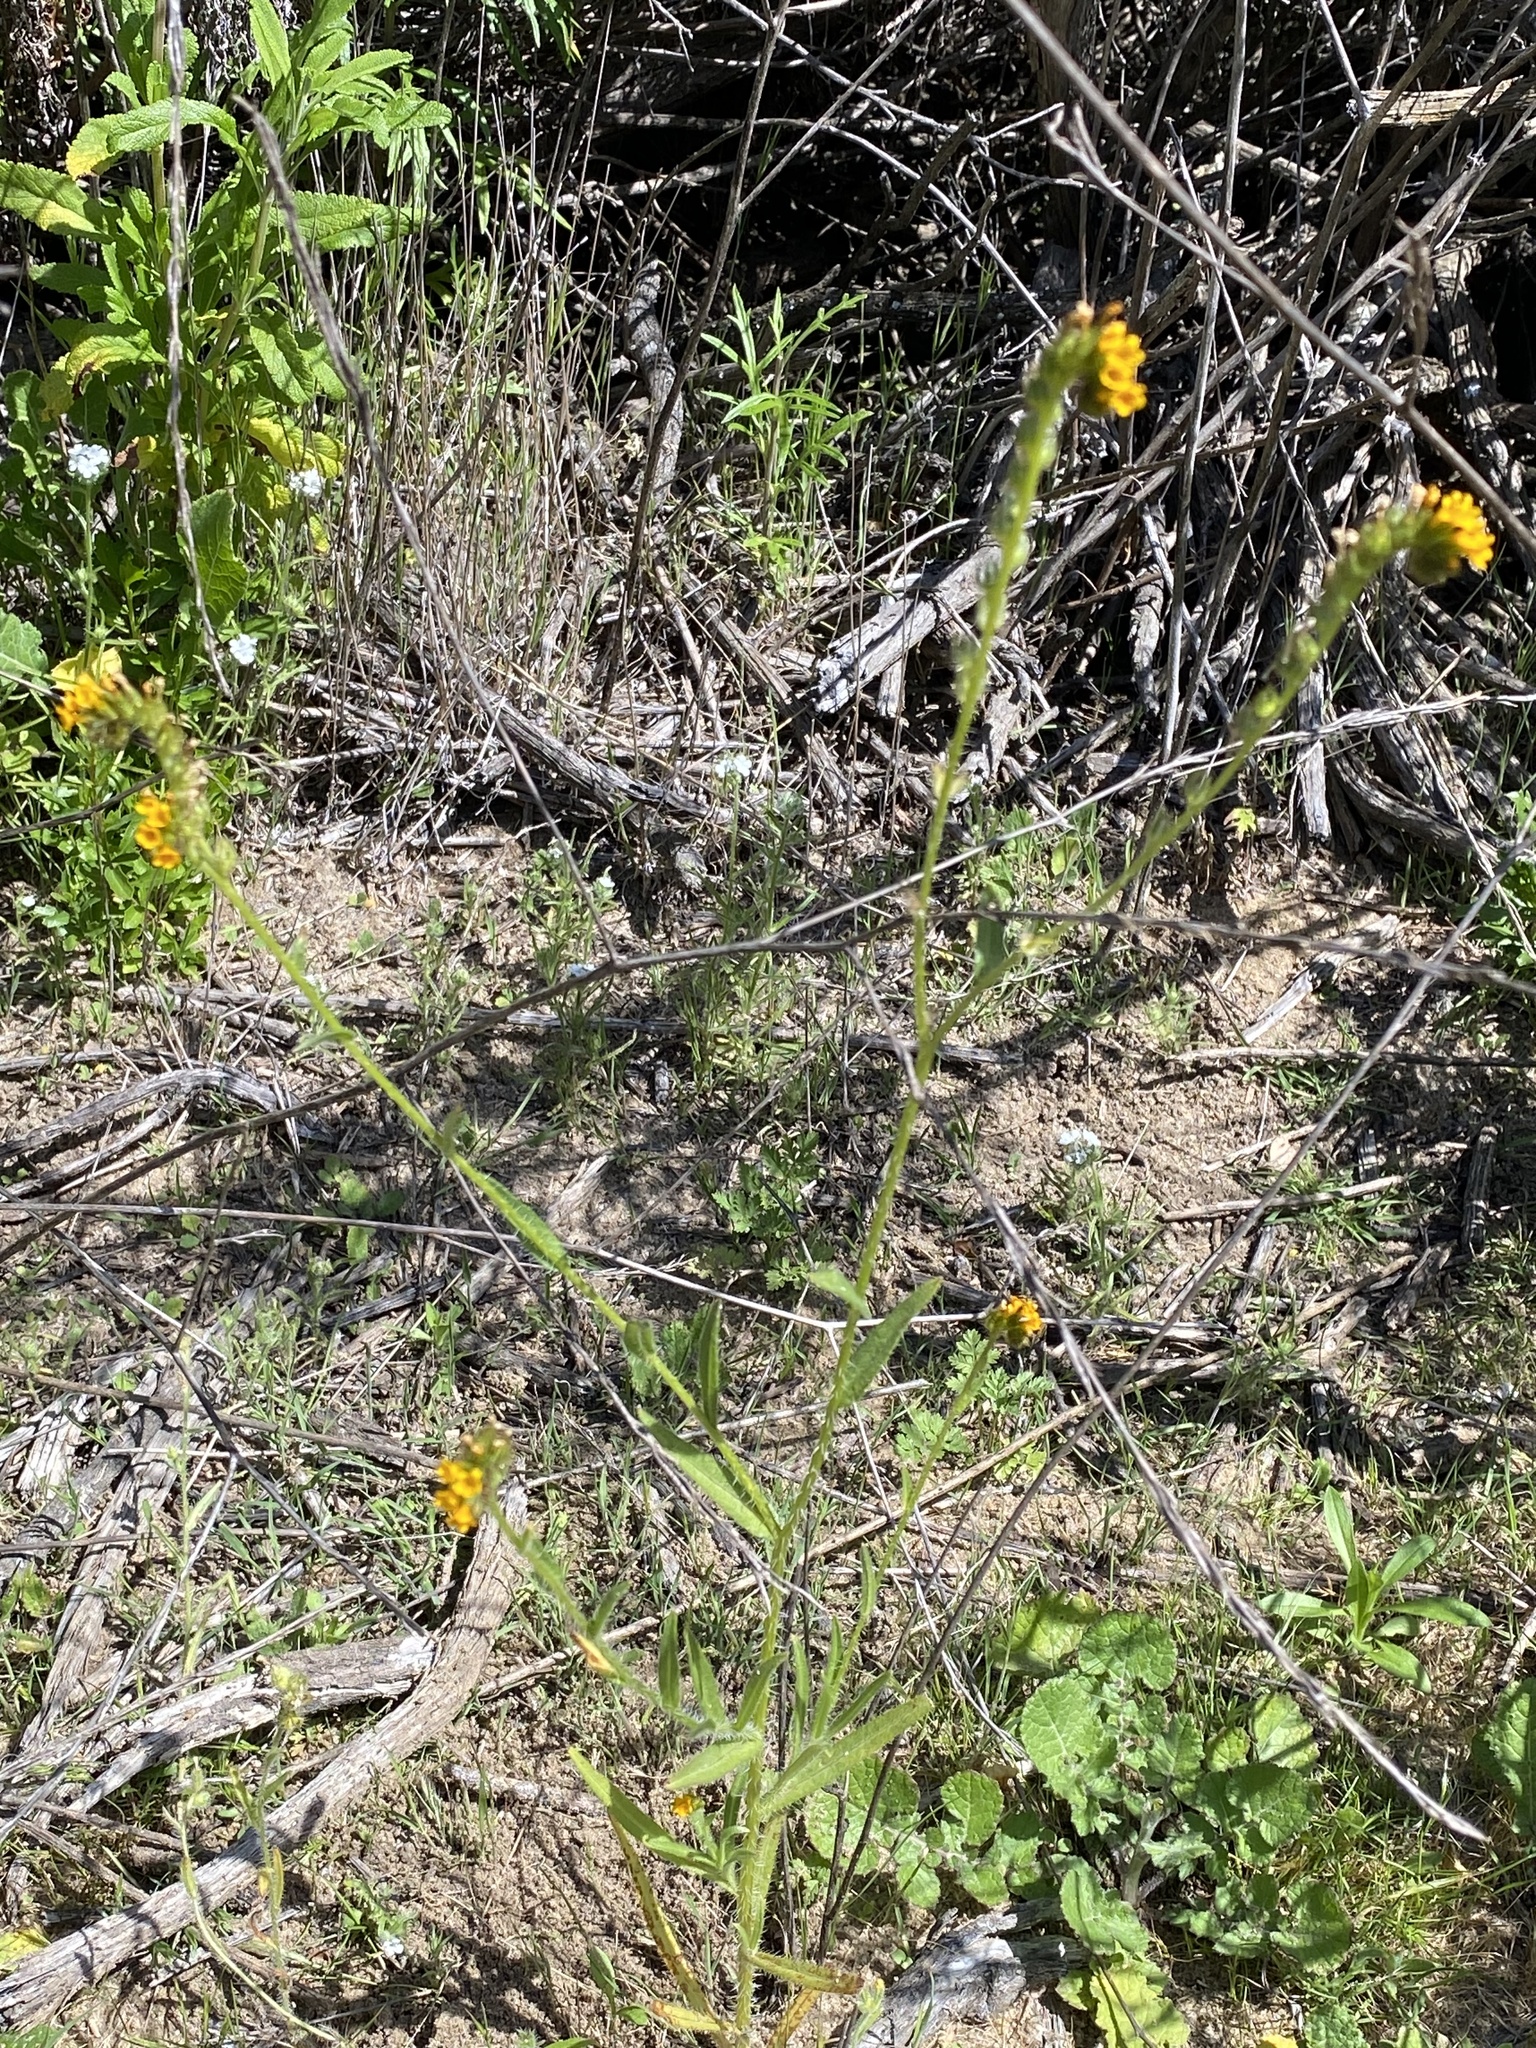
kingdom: Plantae
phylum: Tracheophyta
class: Magnoliopsida
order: Boraginales
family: Boraginaceae
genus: Amsinckia
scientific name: Amsinckia menziesii
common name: Menzies' fiddleneck
